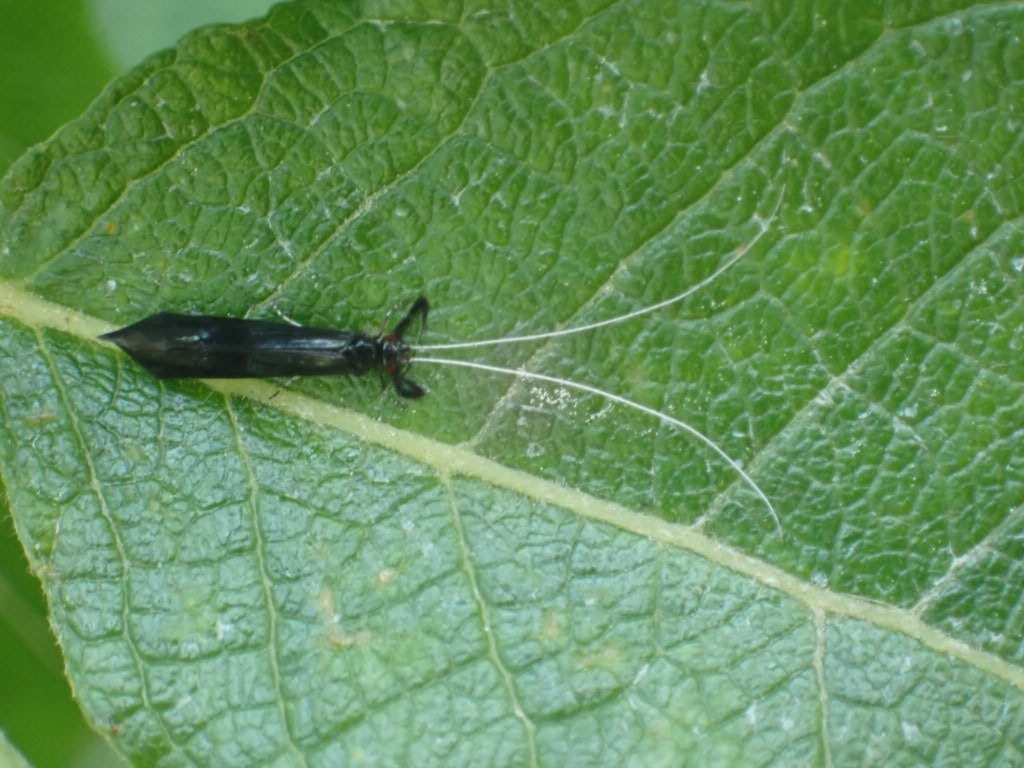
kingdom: Animalia
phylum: Arthropoda
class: Insecta
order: Trichoptera
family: Leptoceridae
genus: Mystacides
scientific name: Mystacides azureus
